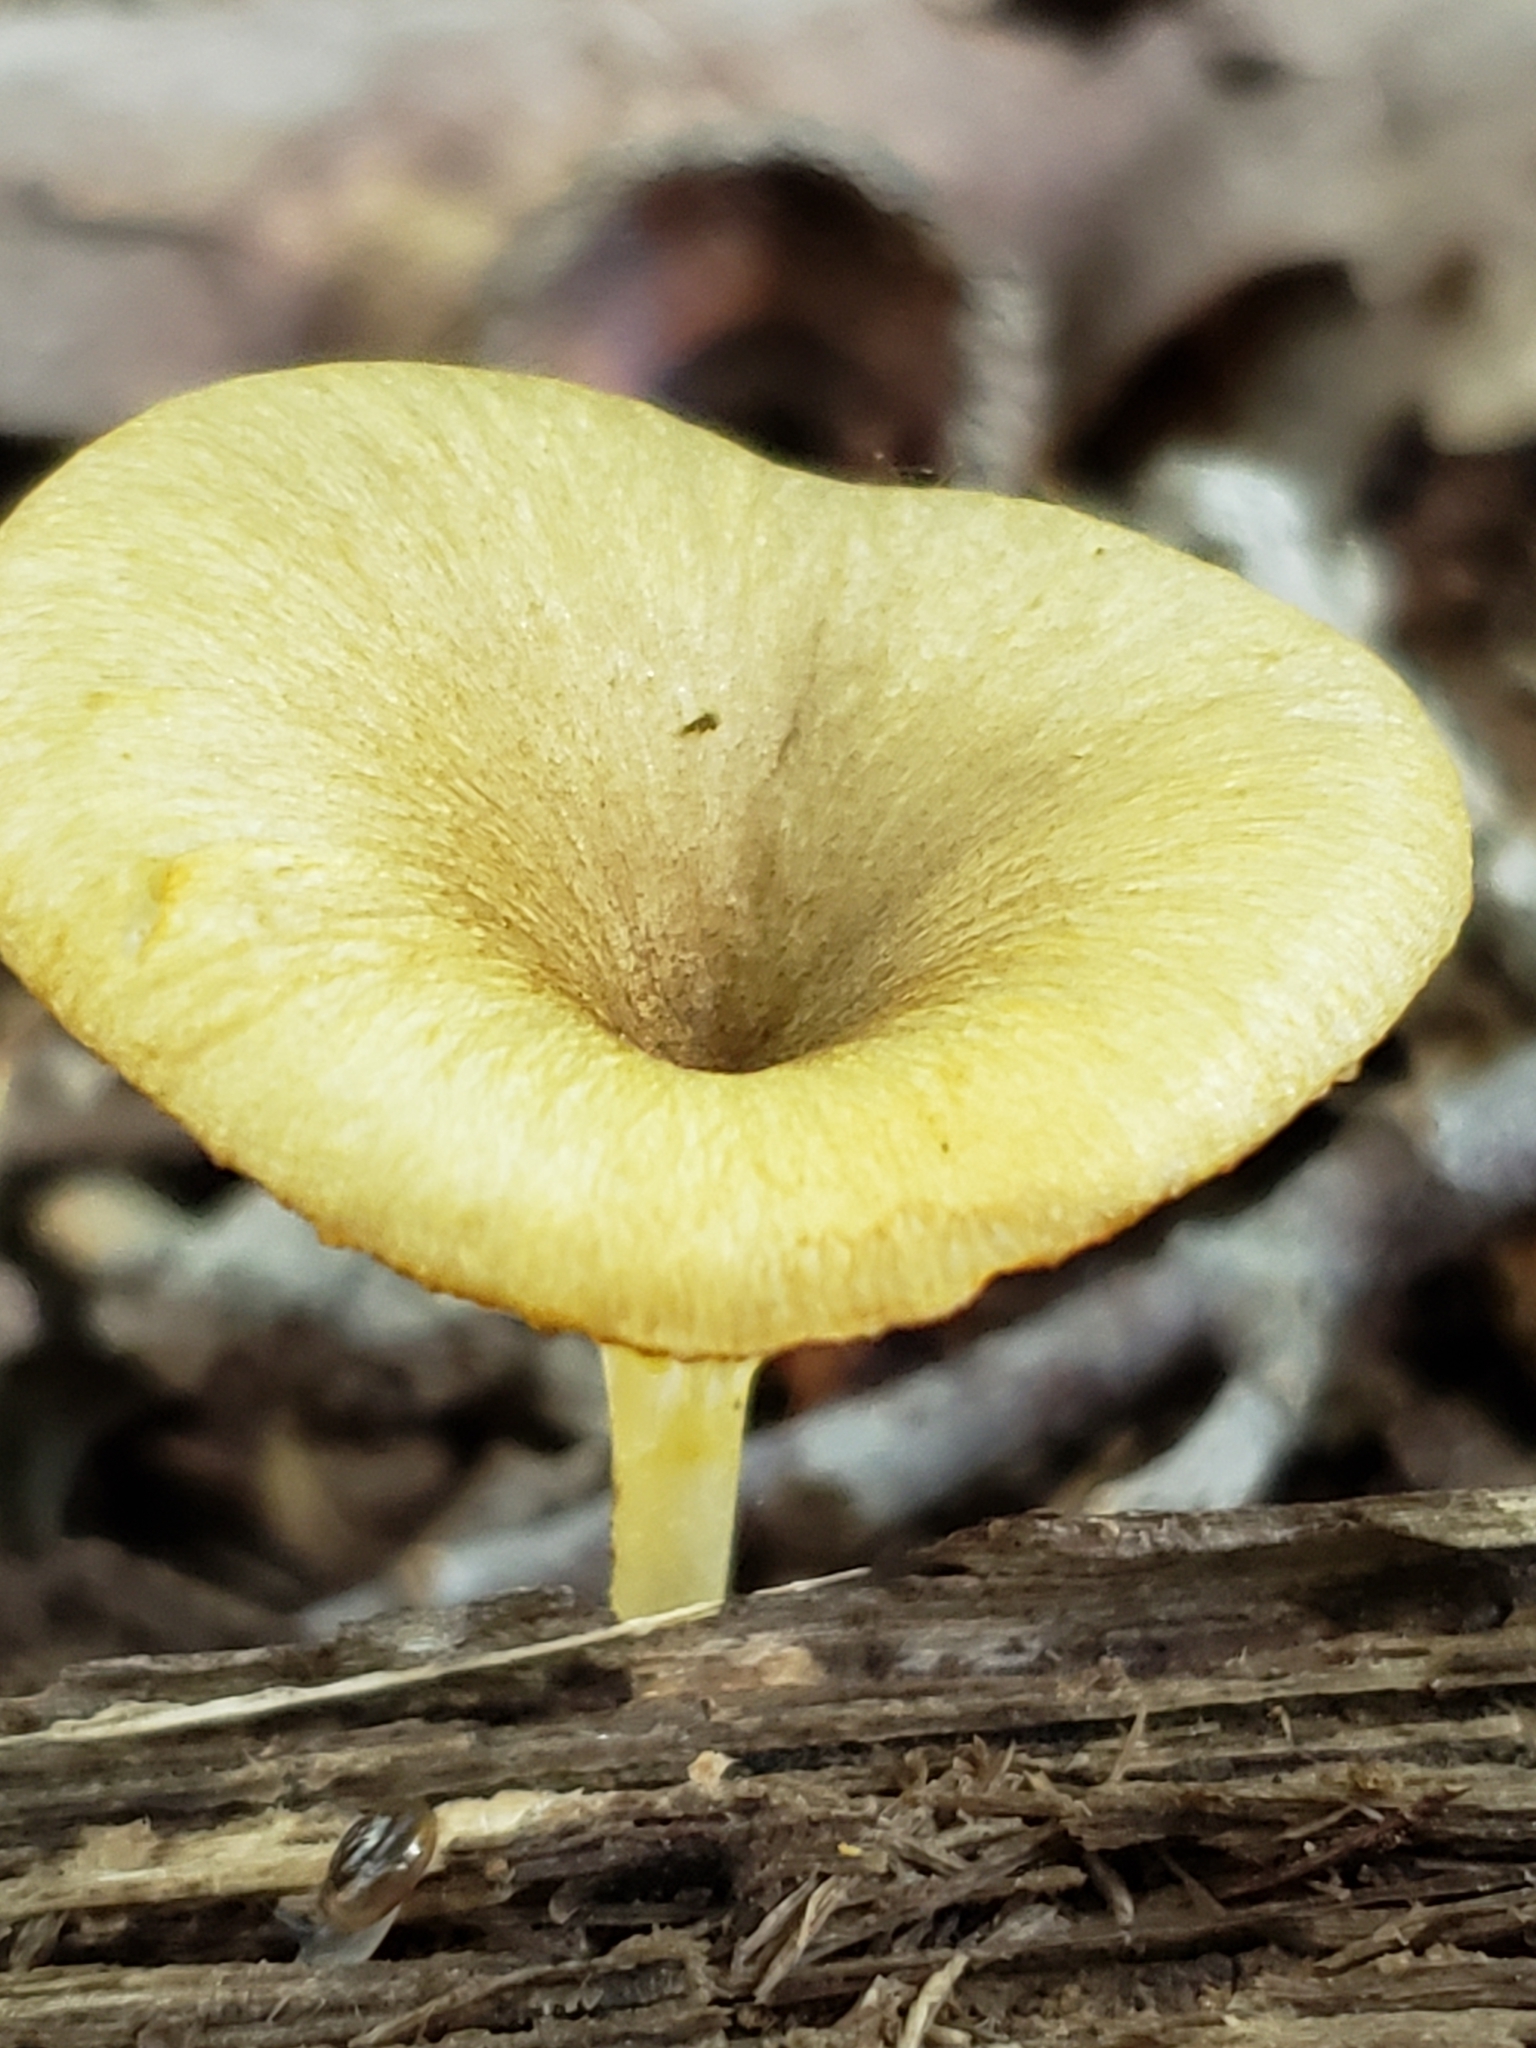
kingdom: Fungi
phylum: Basidiomycota
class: Agaricomycetes
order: Agaricales
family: Marasmiaceae
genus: Gerronema
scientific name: Gerronema strombodes
